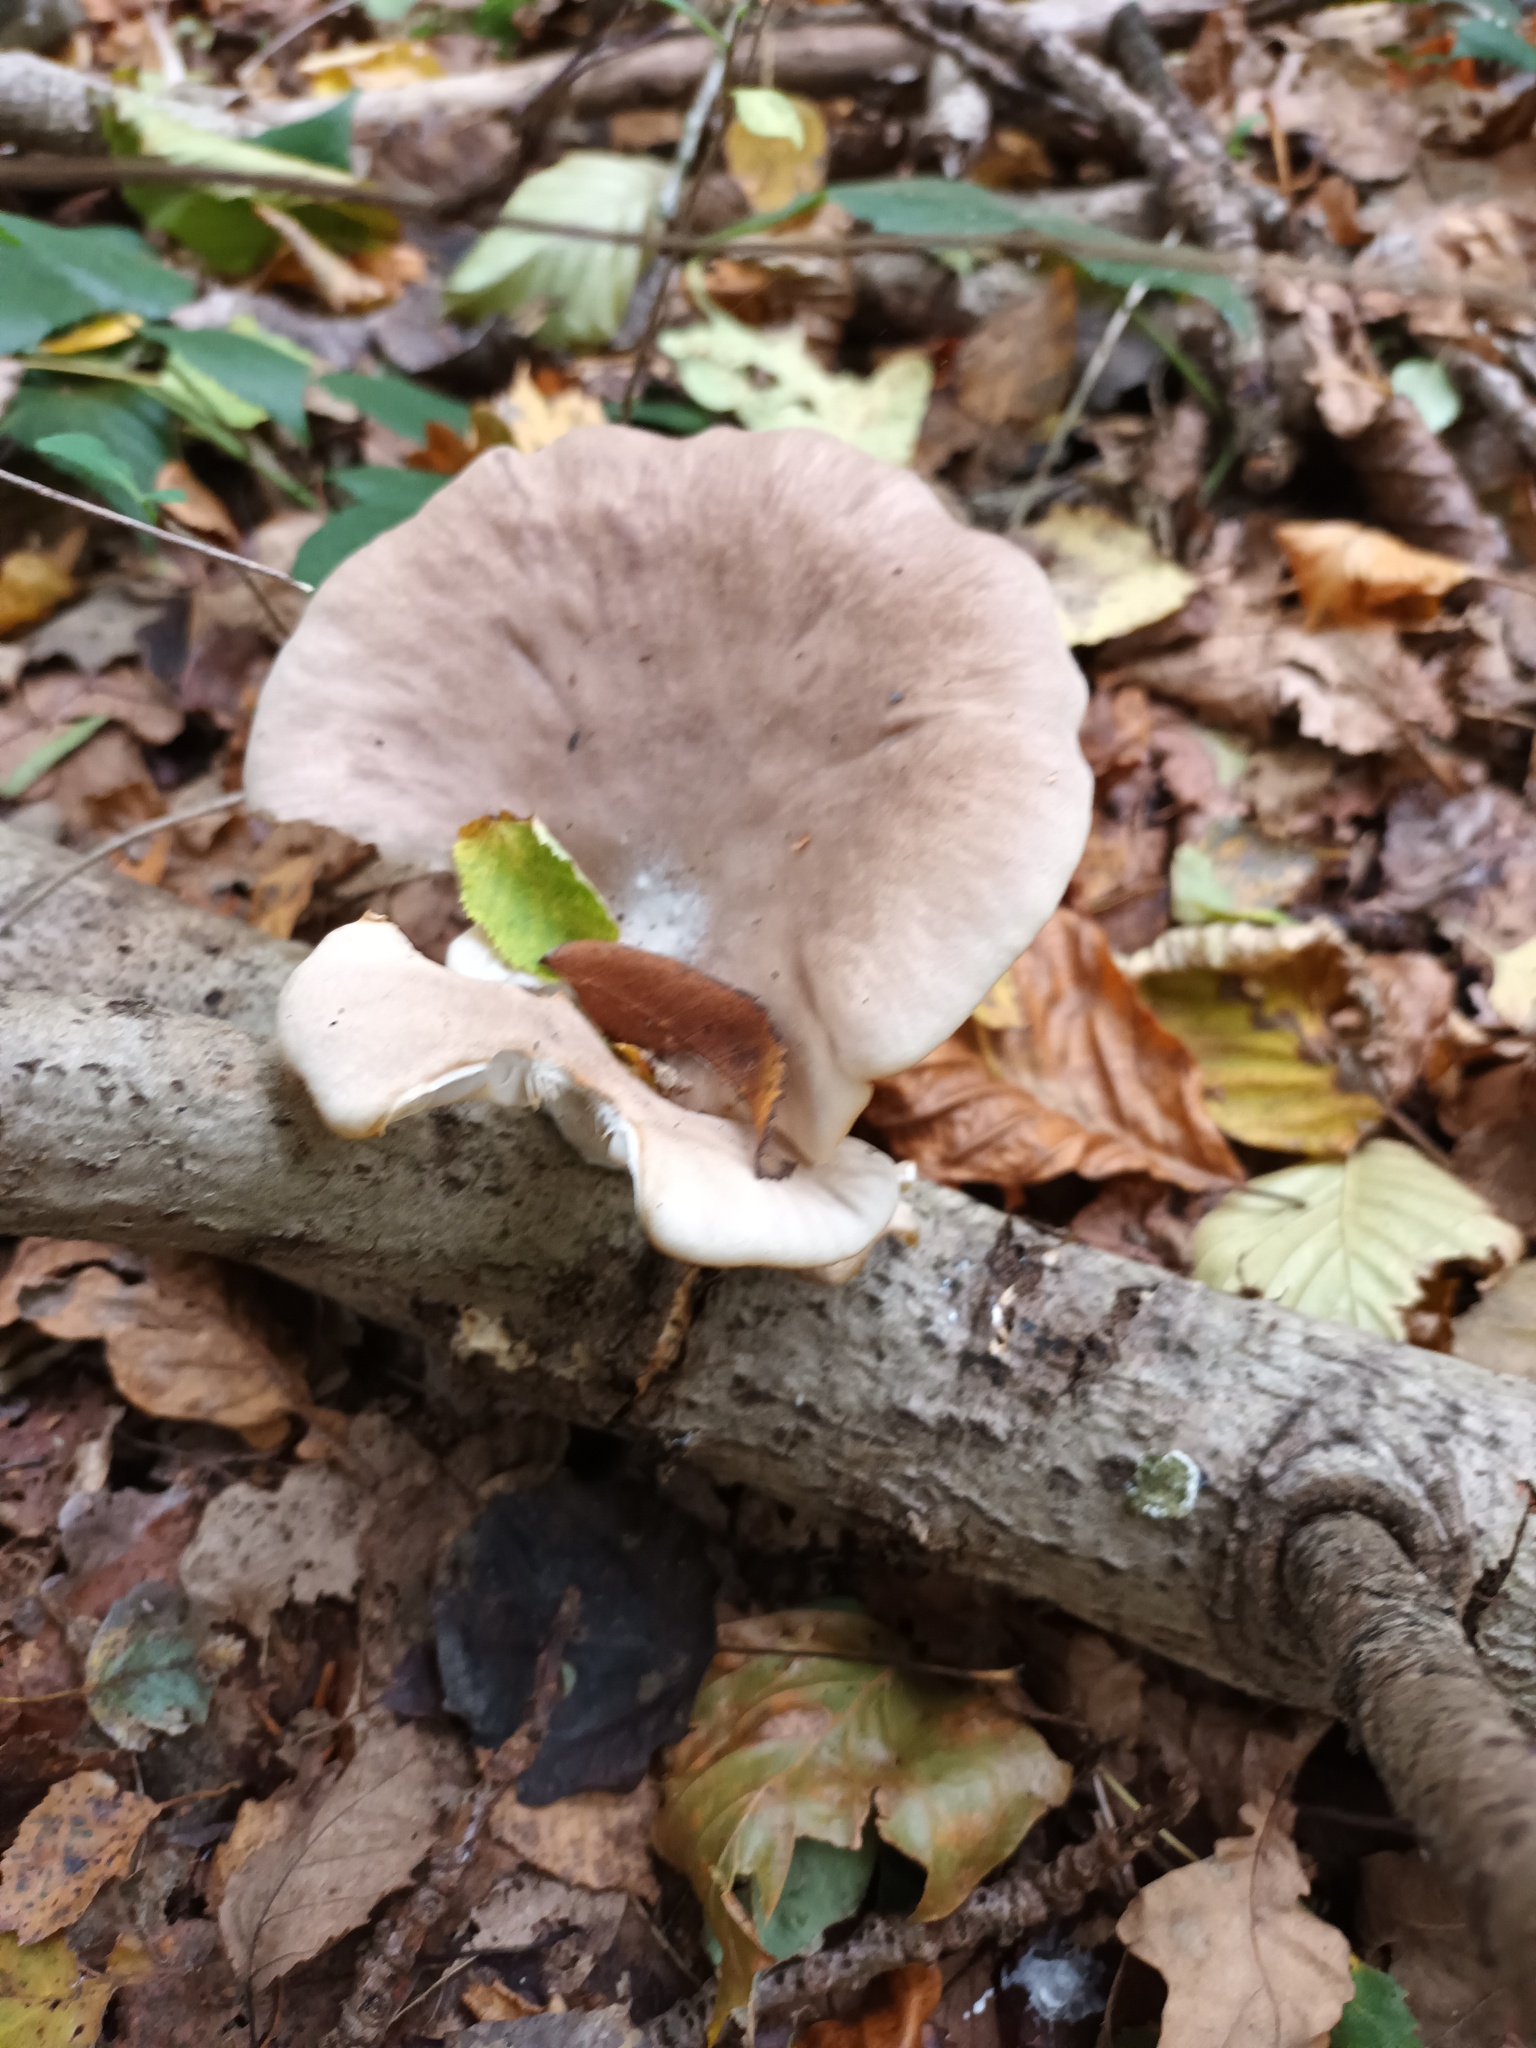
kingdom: Fungi
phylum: Basidiomycota
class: Agaricomycetes
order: Agaricales
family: Pleurotaceae
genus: Pleurotus
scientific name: Pleurotus ostreatus
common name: Oyster mushroom
